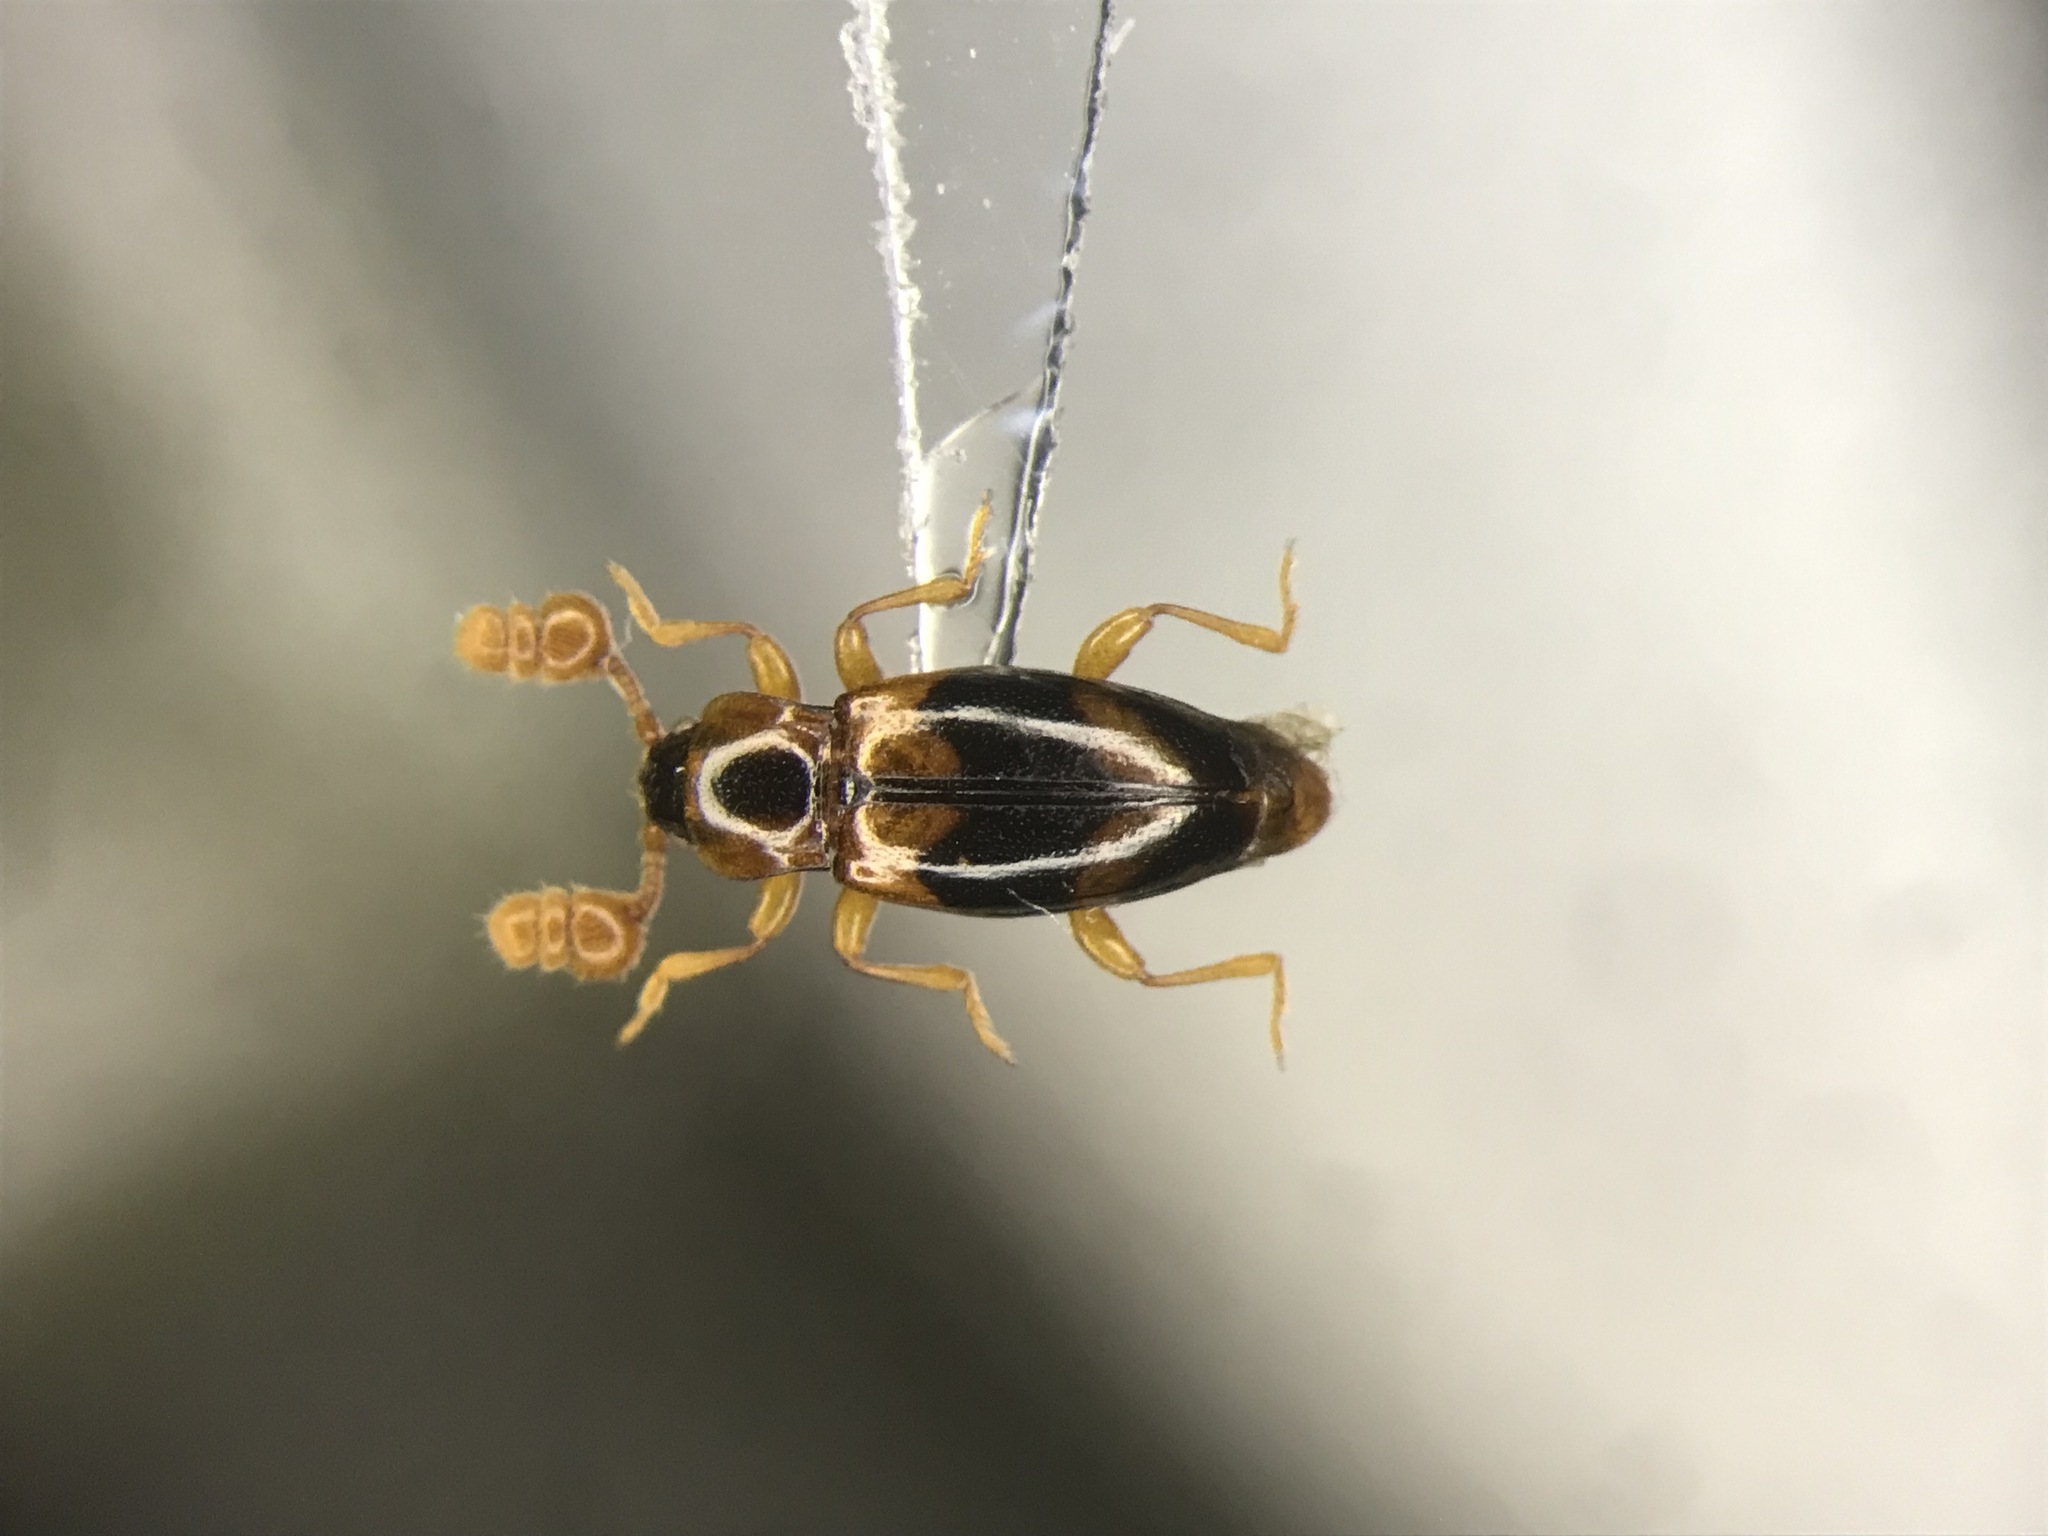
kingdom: Animalia
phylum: Arthropoda
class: Insecta
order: Coleoptera
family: Endomychidae
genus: Phymaphora
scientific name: Phymaphora pulchella
